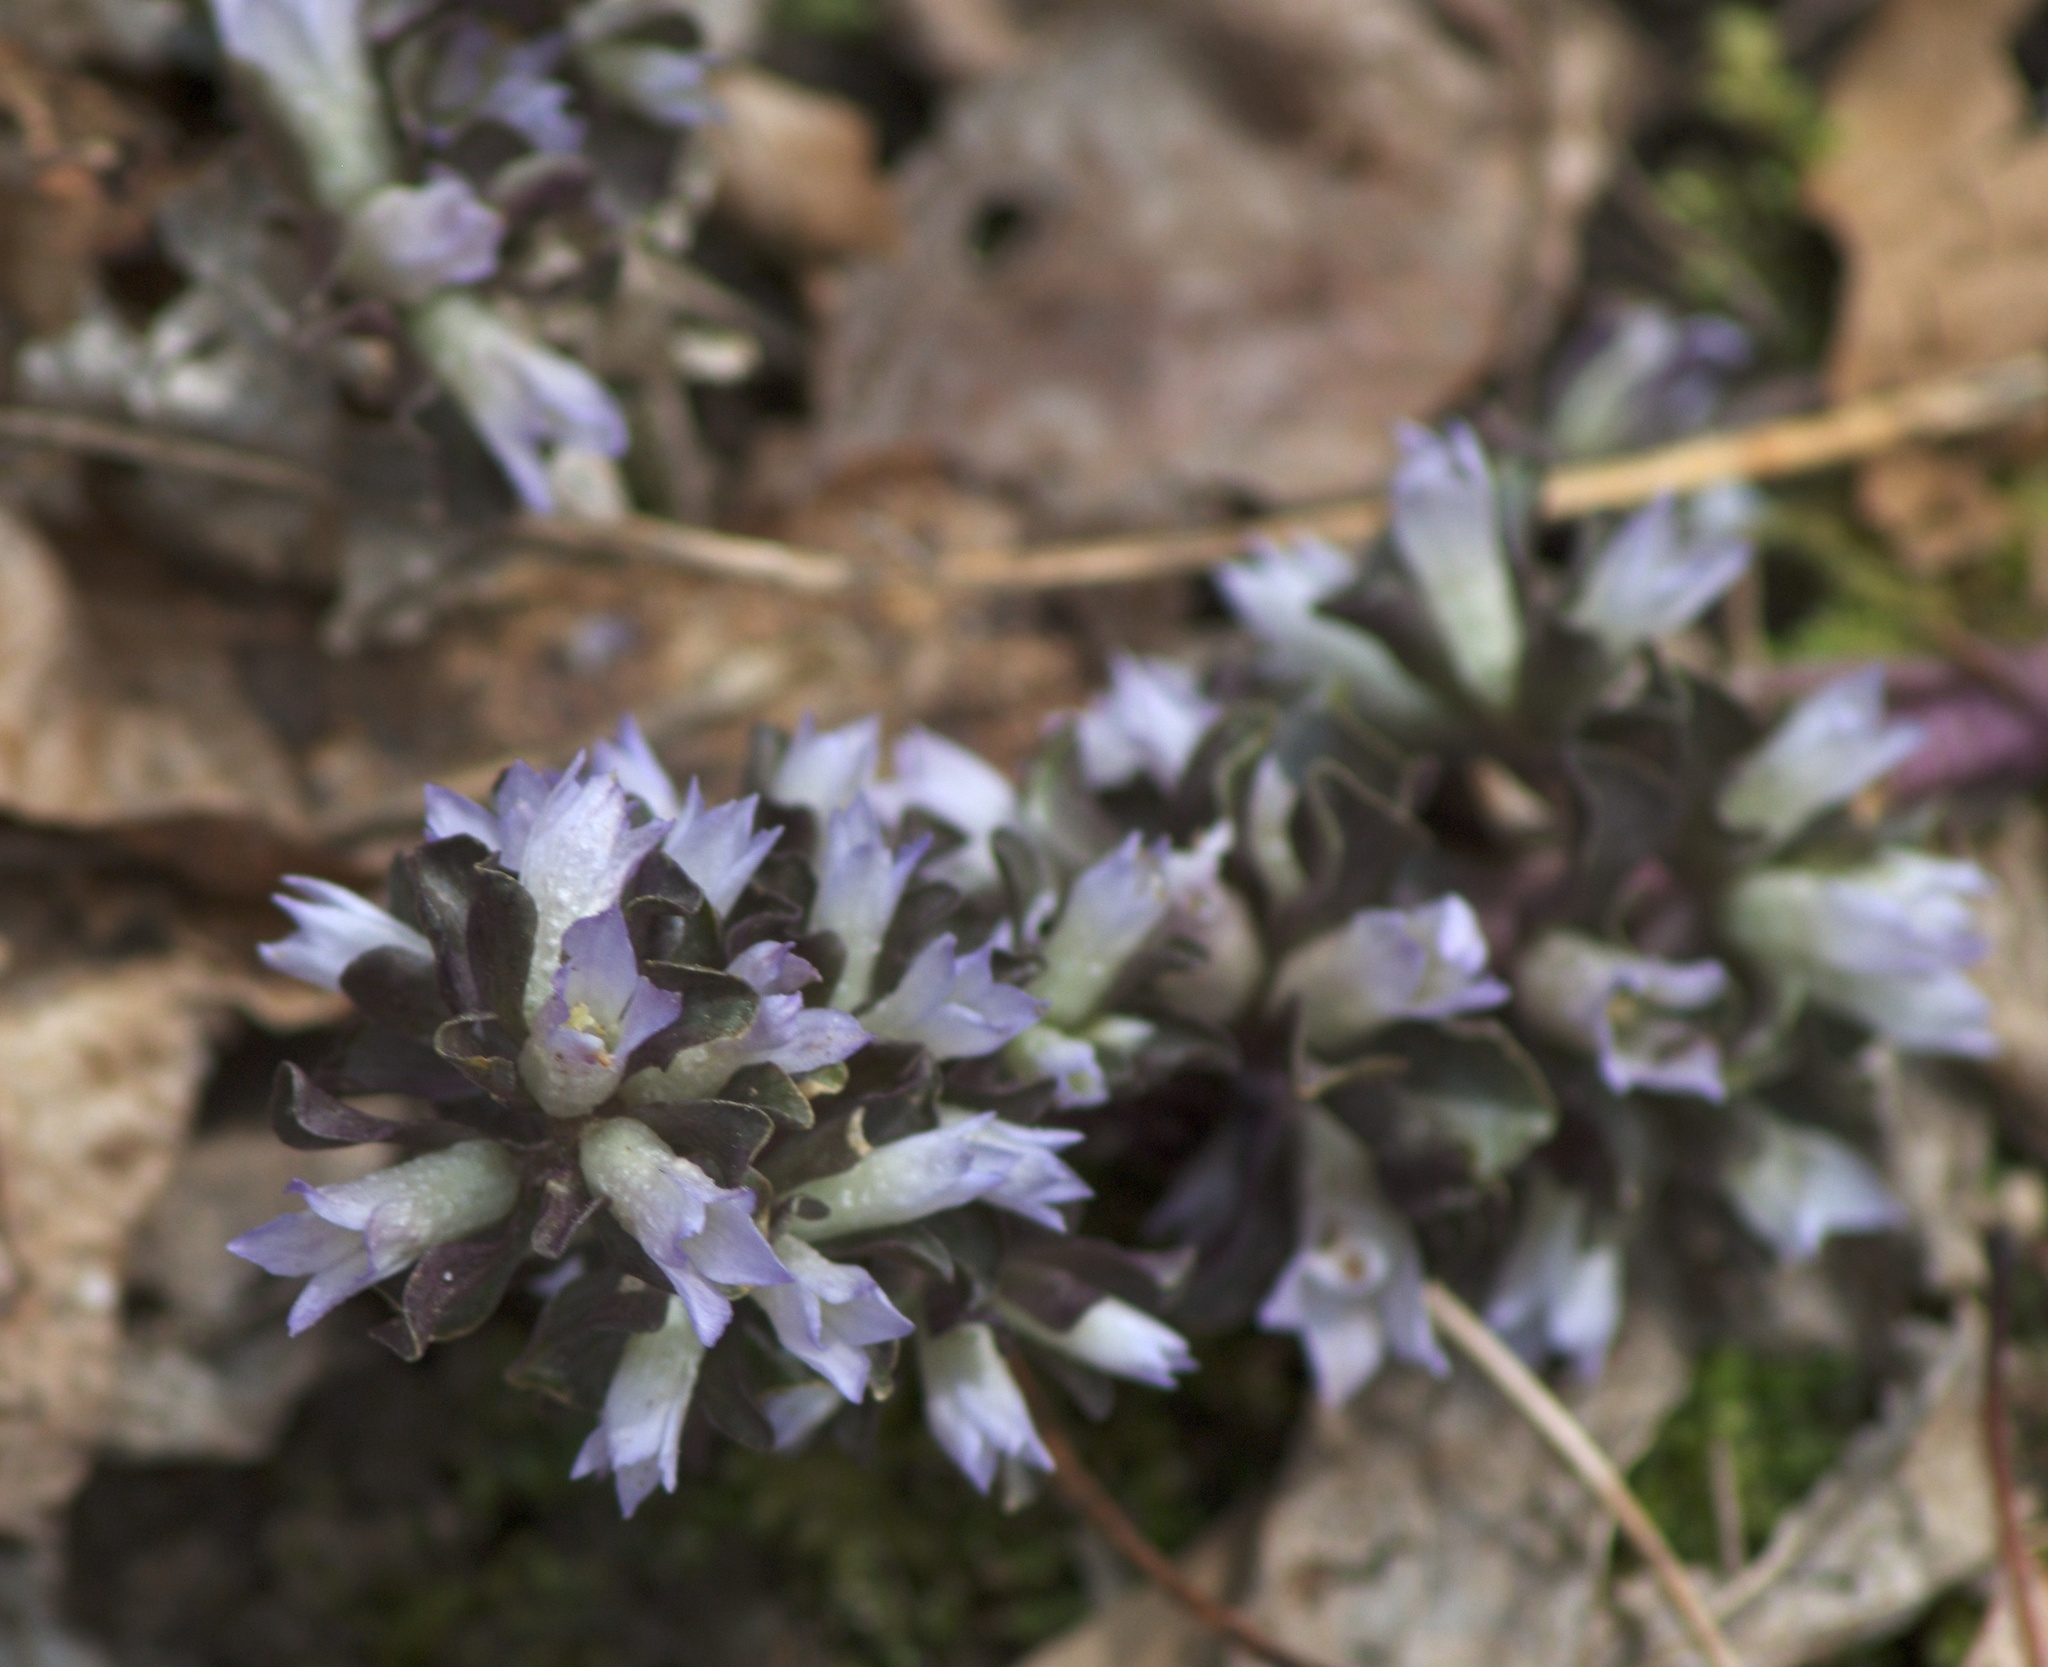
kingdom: Plantae
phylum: Tracheophyta
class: Magnoliopsida
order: Gentianales
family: Gentianaceae
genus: Obolaria
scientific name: Obolaria virginica
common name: Pennywort
